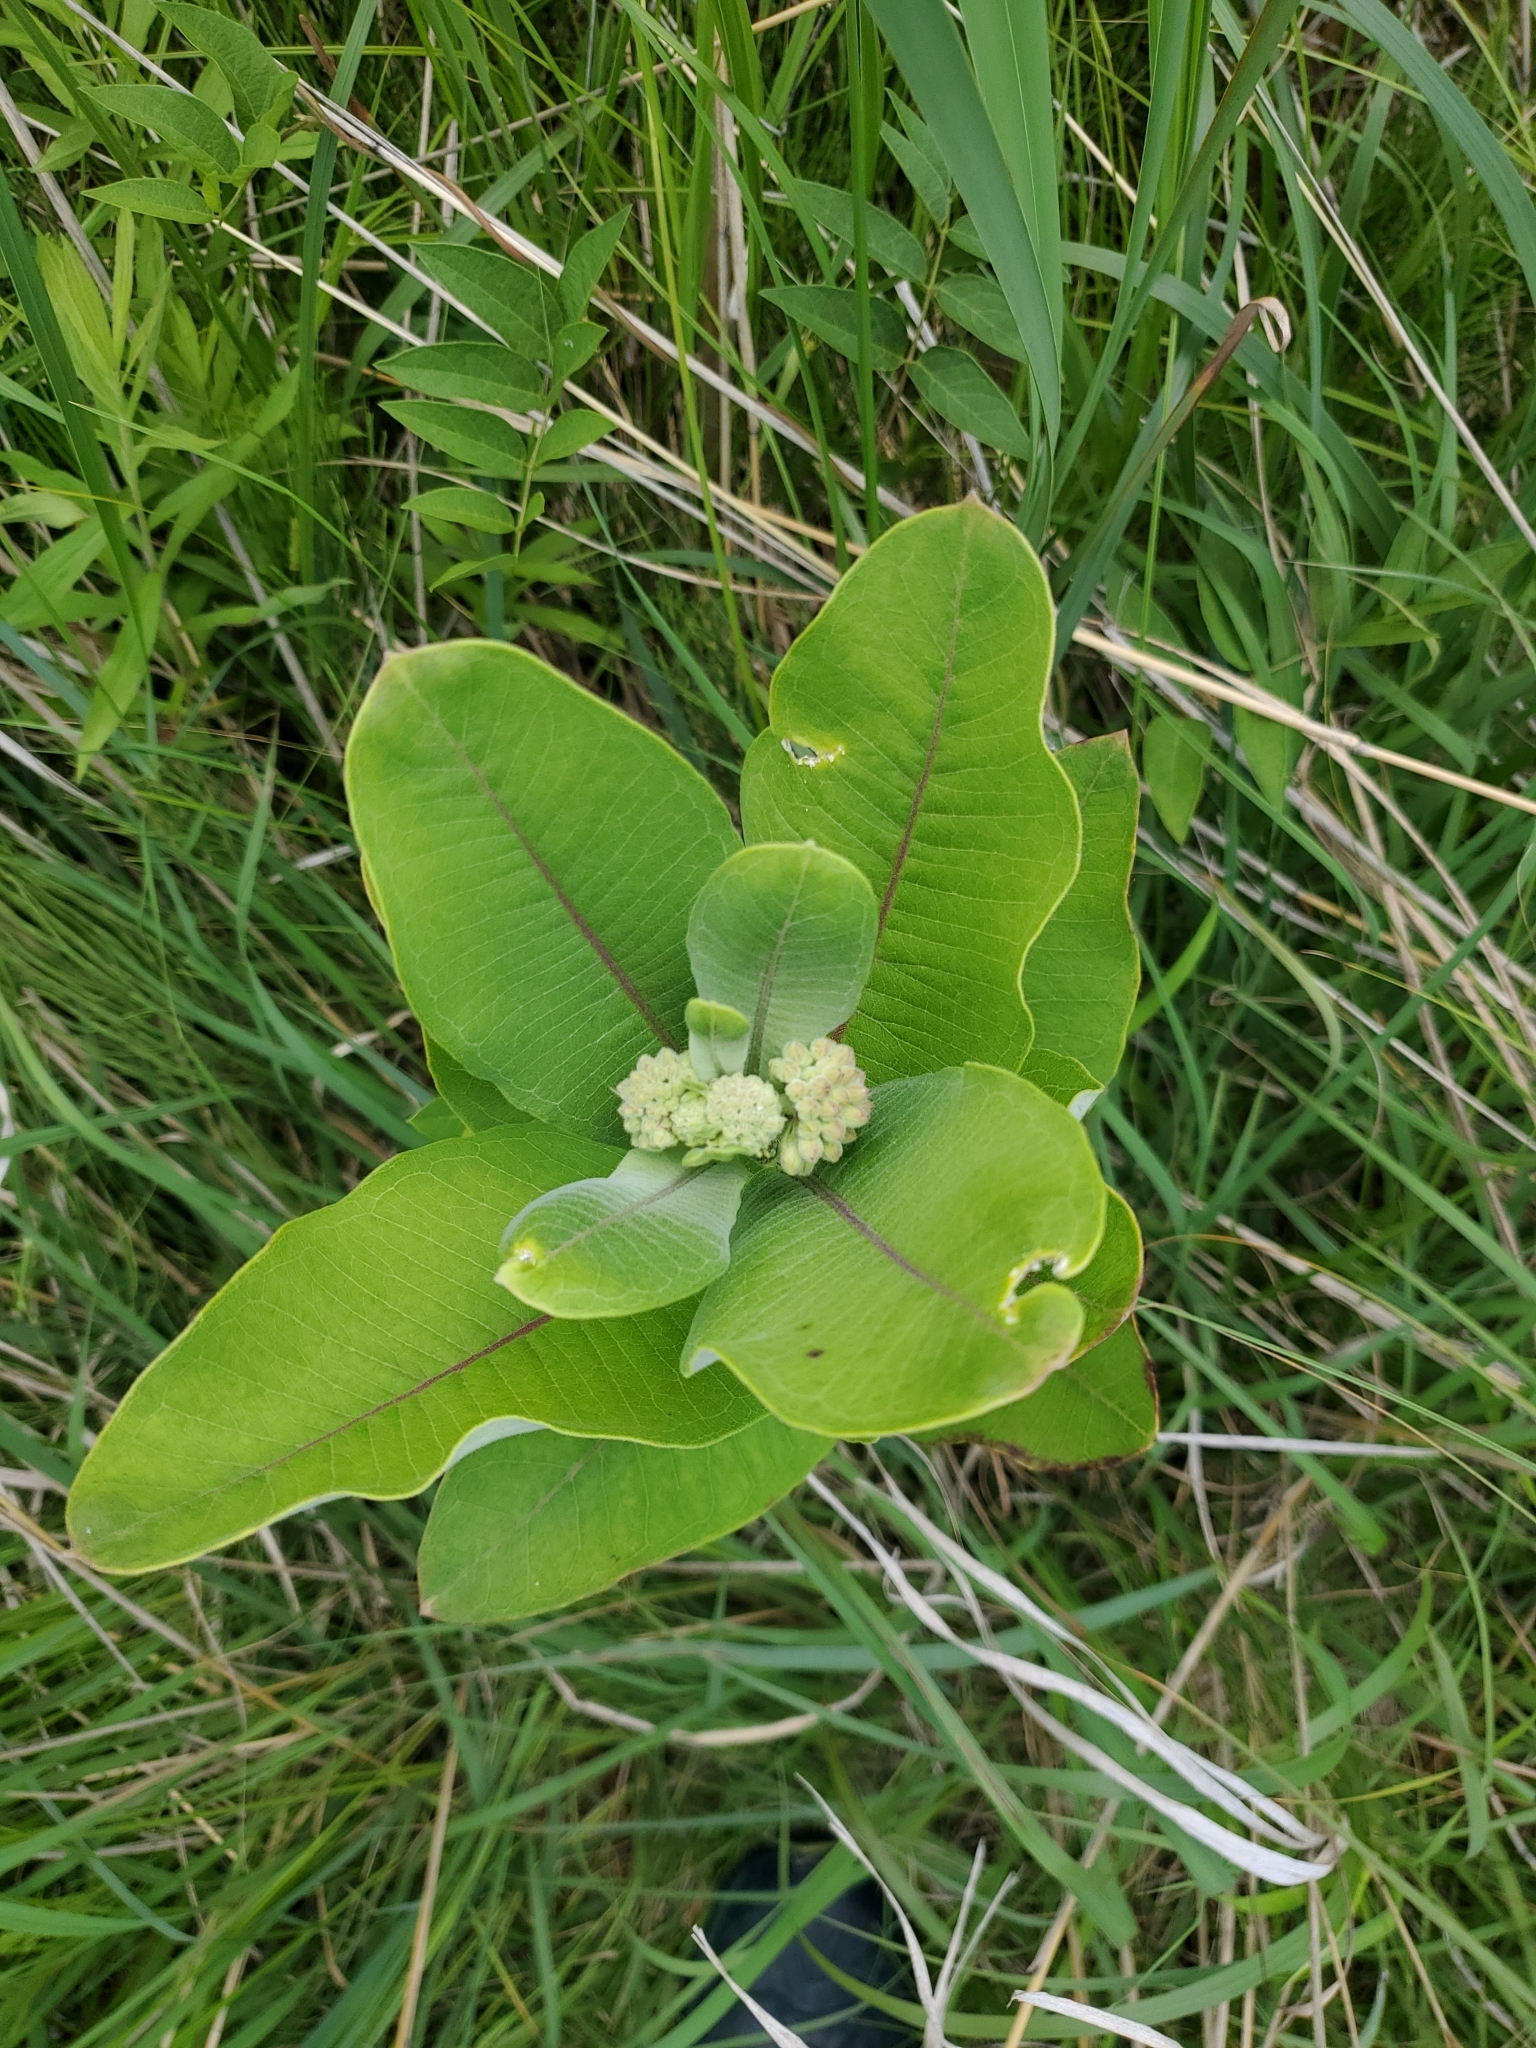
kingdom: Plantae
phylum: Tracheophyta
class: Magnoliopsida
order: Gentianales
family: Apocynaceae
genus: Asclepias
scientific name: Asclepias syriaca
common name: Common milkweed
